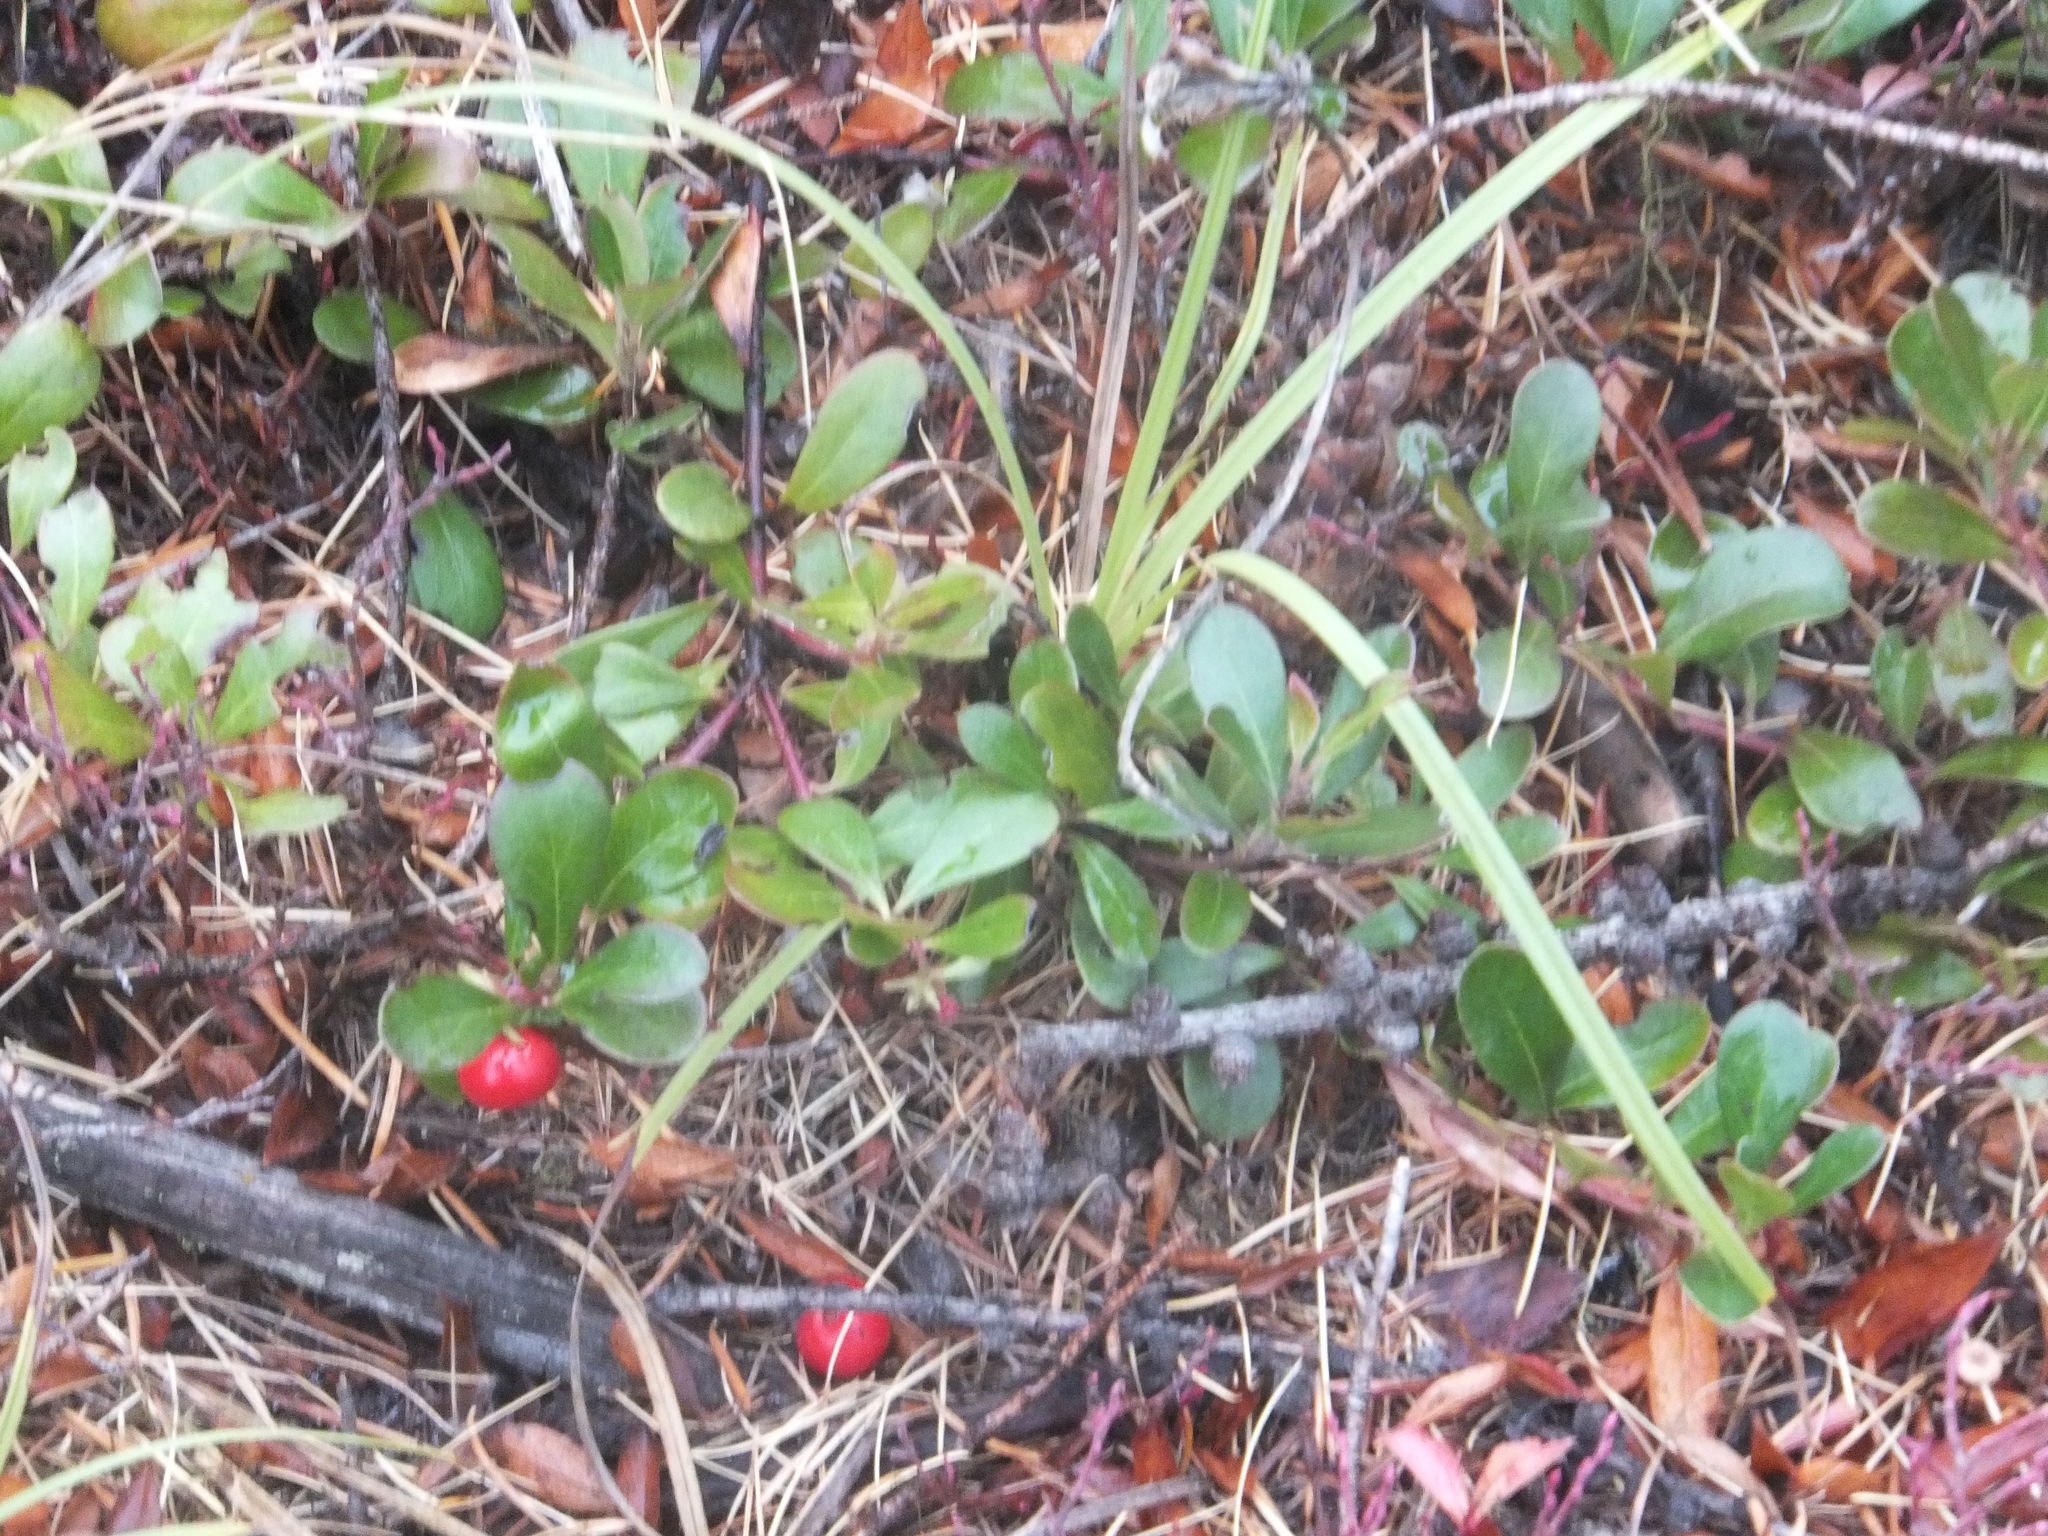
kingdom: Plantae
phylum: Tracheophyta
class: Magnoliopsida
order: Ericales
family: Ericaceae
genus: Arctostaphylos
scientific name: Arctostaphylos uva-ursi
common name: Bearberry
